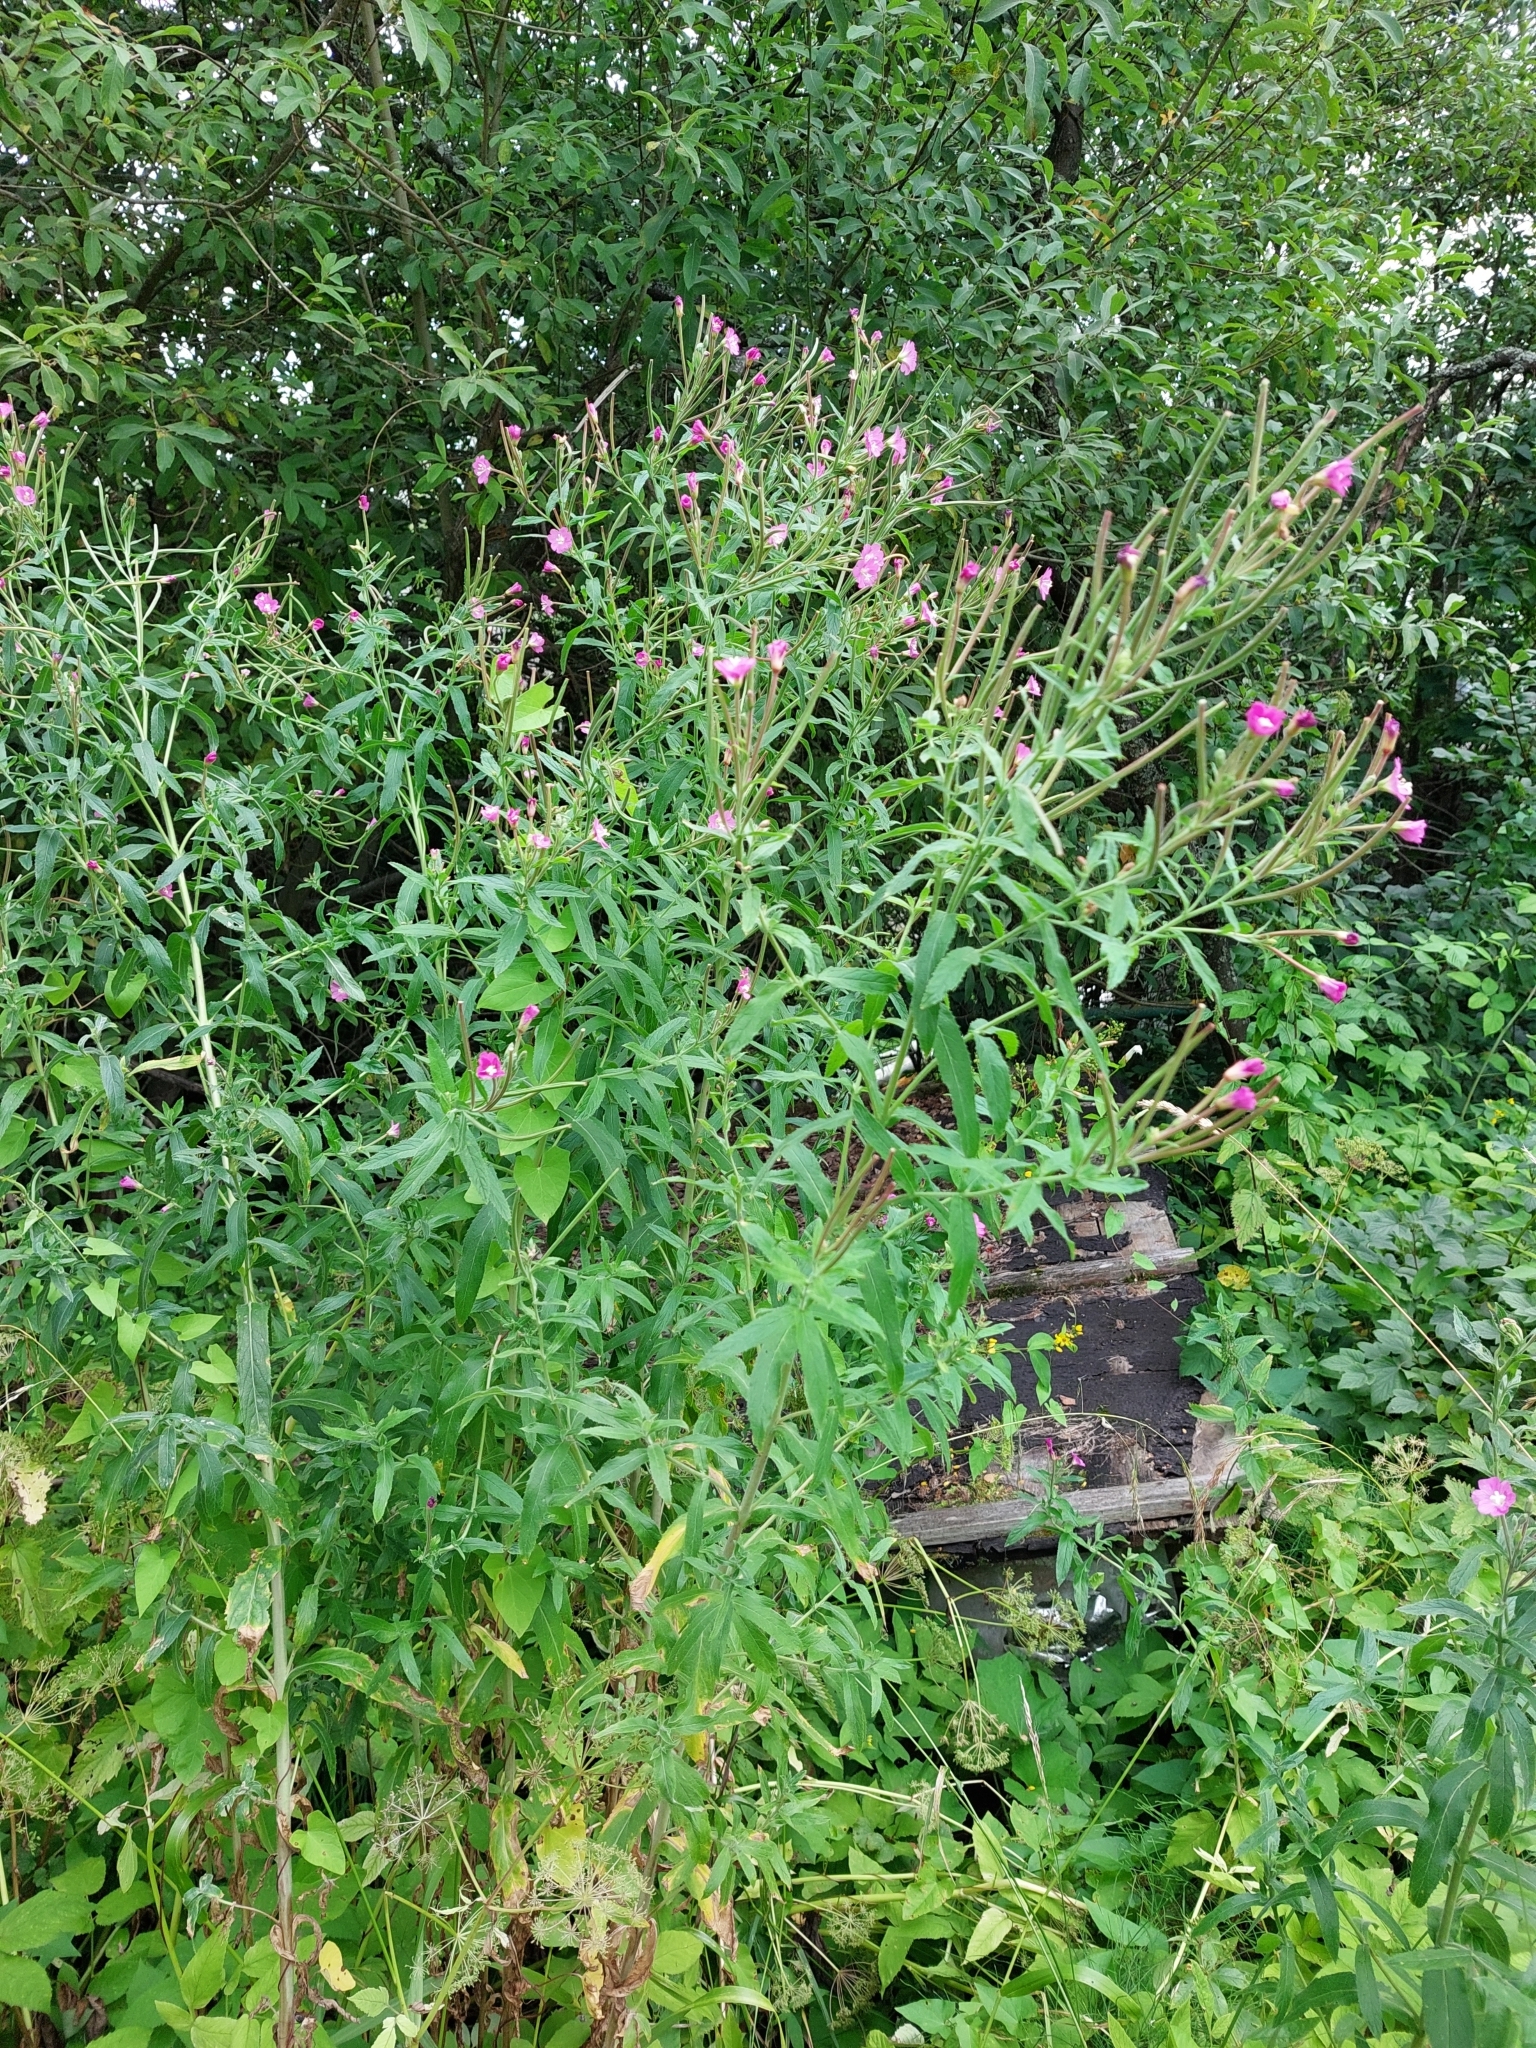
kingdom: Plantae
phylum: Tracheophyta
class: Magnoliopsida
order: Myrtales
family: Onagraceae
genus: Epilobium
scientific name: Epilobium hirsutum
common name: Great willowherb
